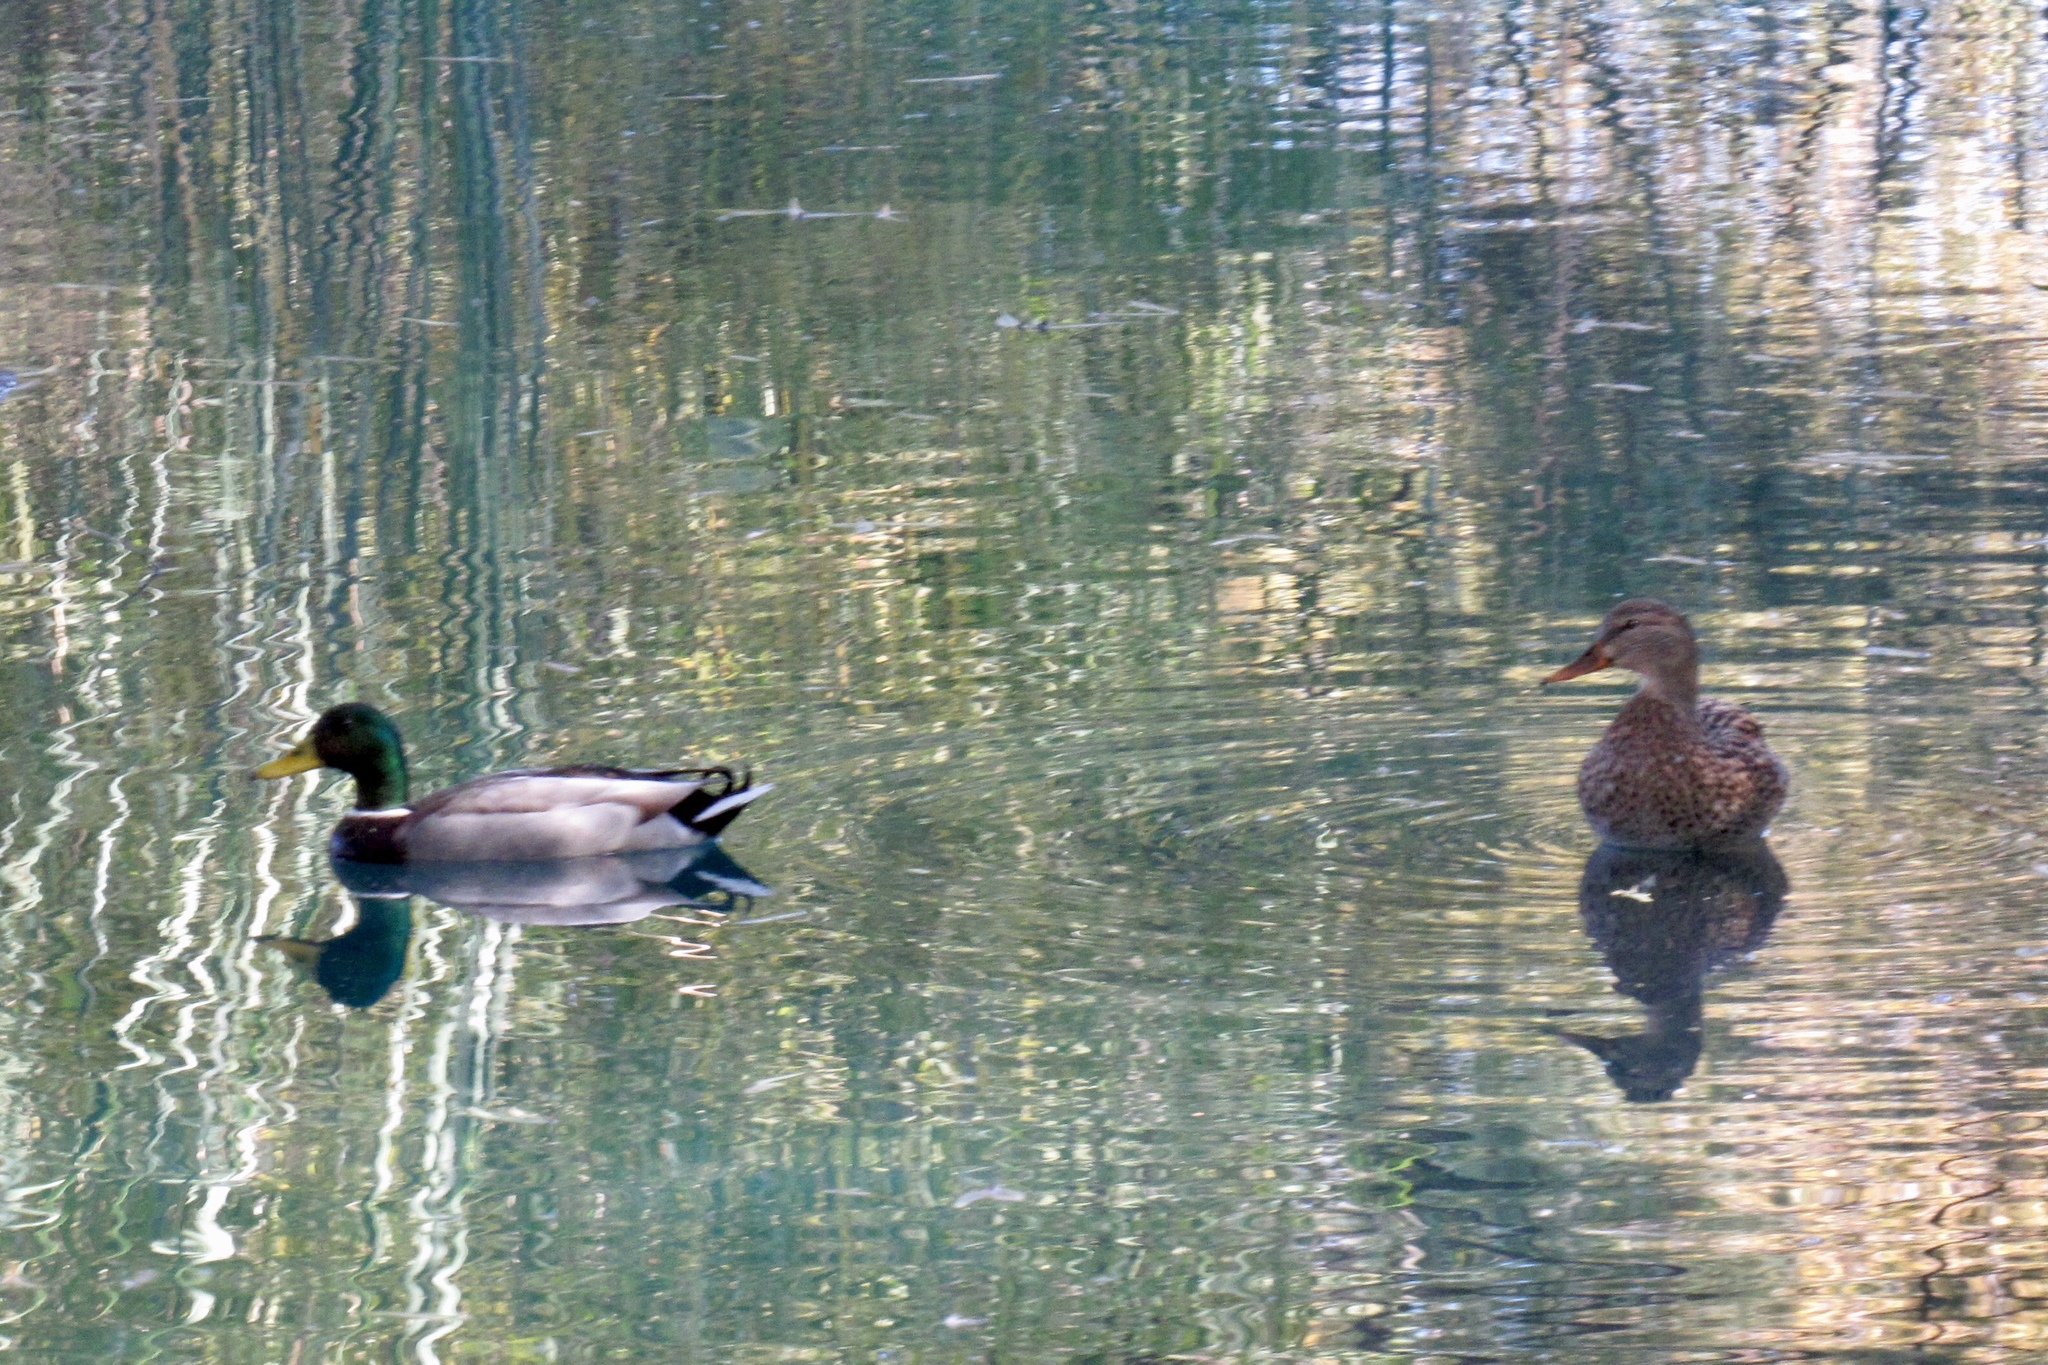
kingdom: Animalia
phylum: Chordata
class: Aves
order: Anseriformes
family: Anatidae
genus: Anas
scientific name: Anas platyrhynchos
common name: Mallard
